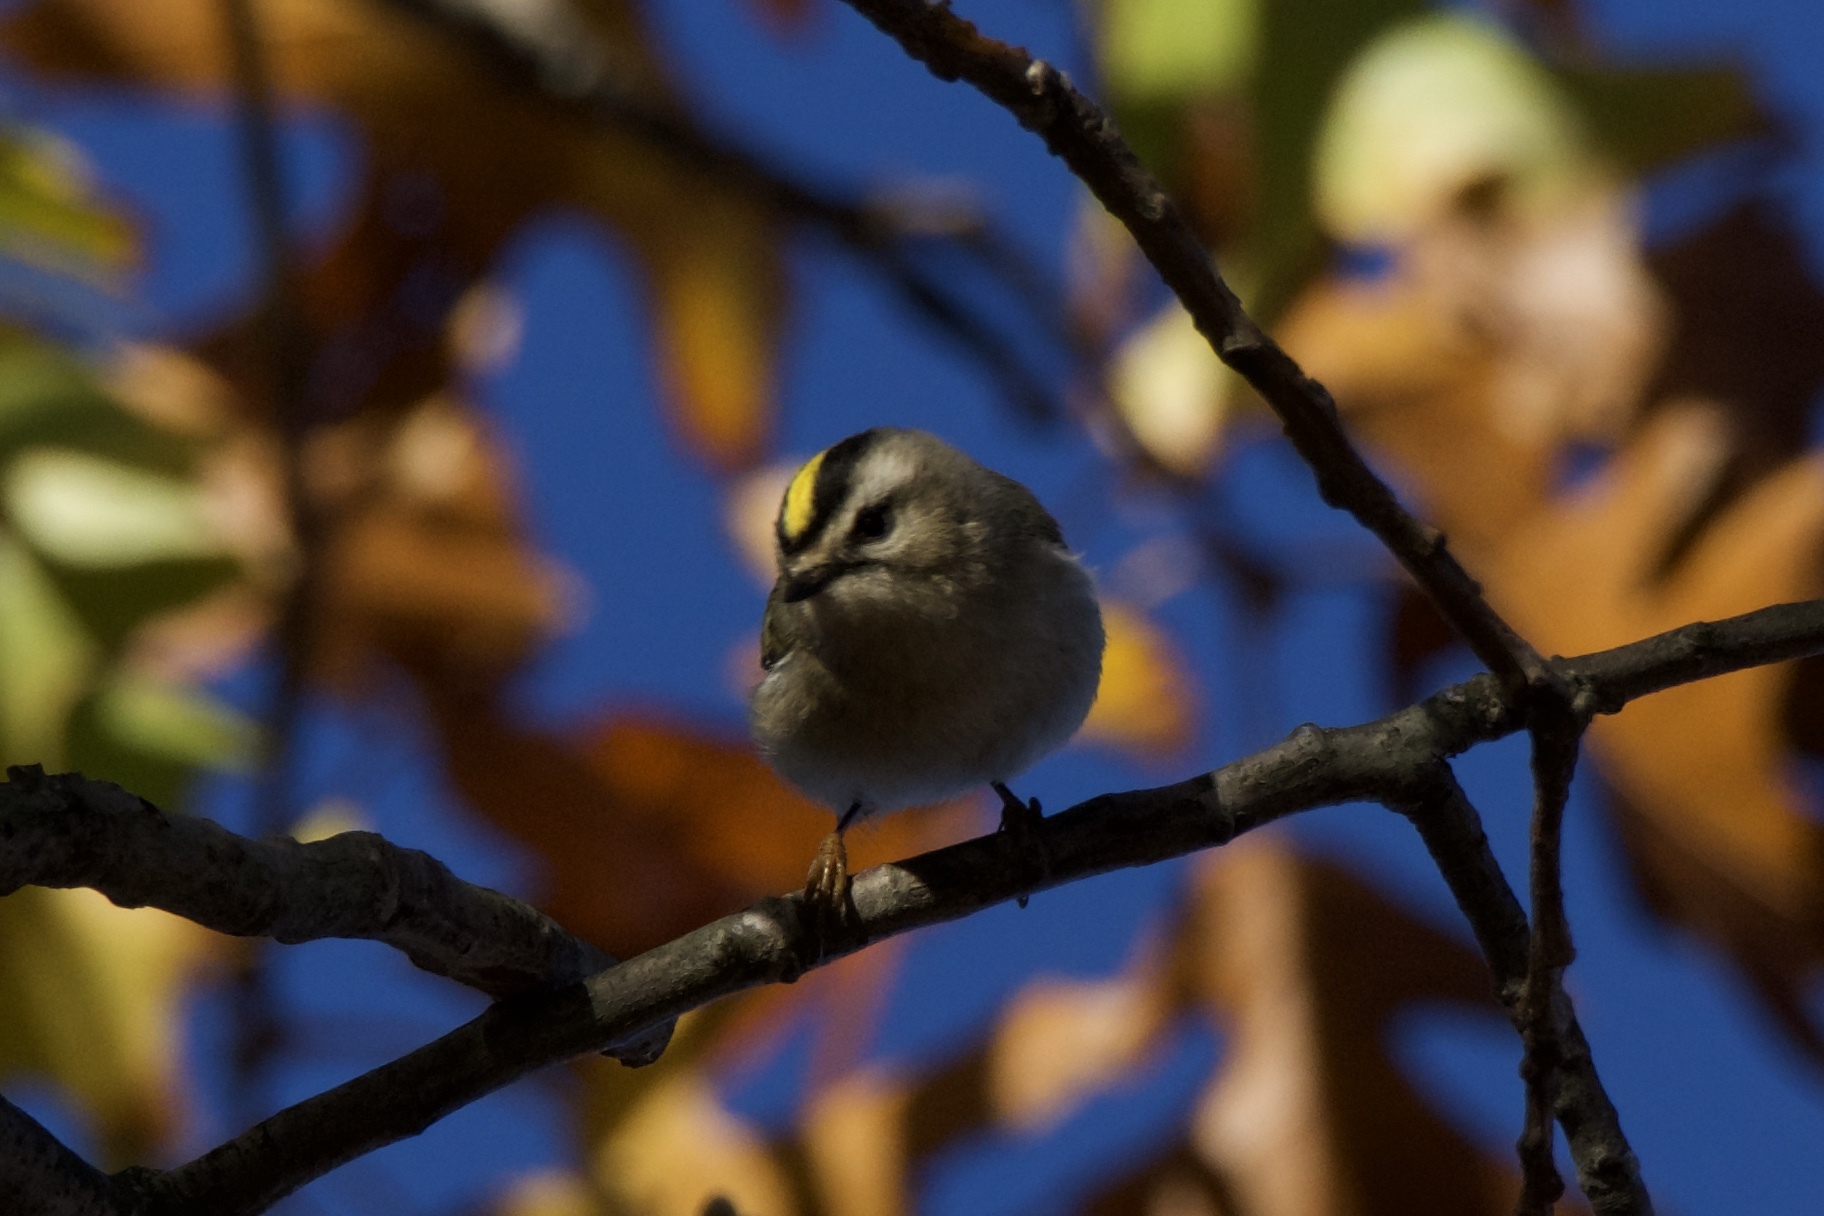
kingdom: Animalia
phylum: Chordata
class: Aves
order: Passeriformes
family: Regulidae
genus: Regulus
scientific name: Regulus satrapa
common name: Golden-crowned kinglet
